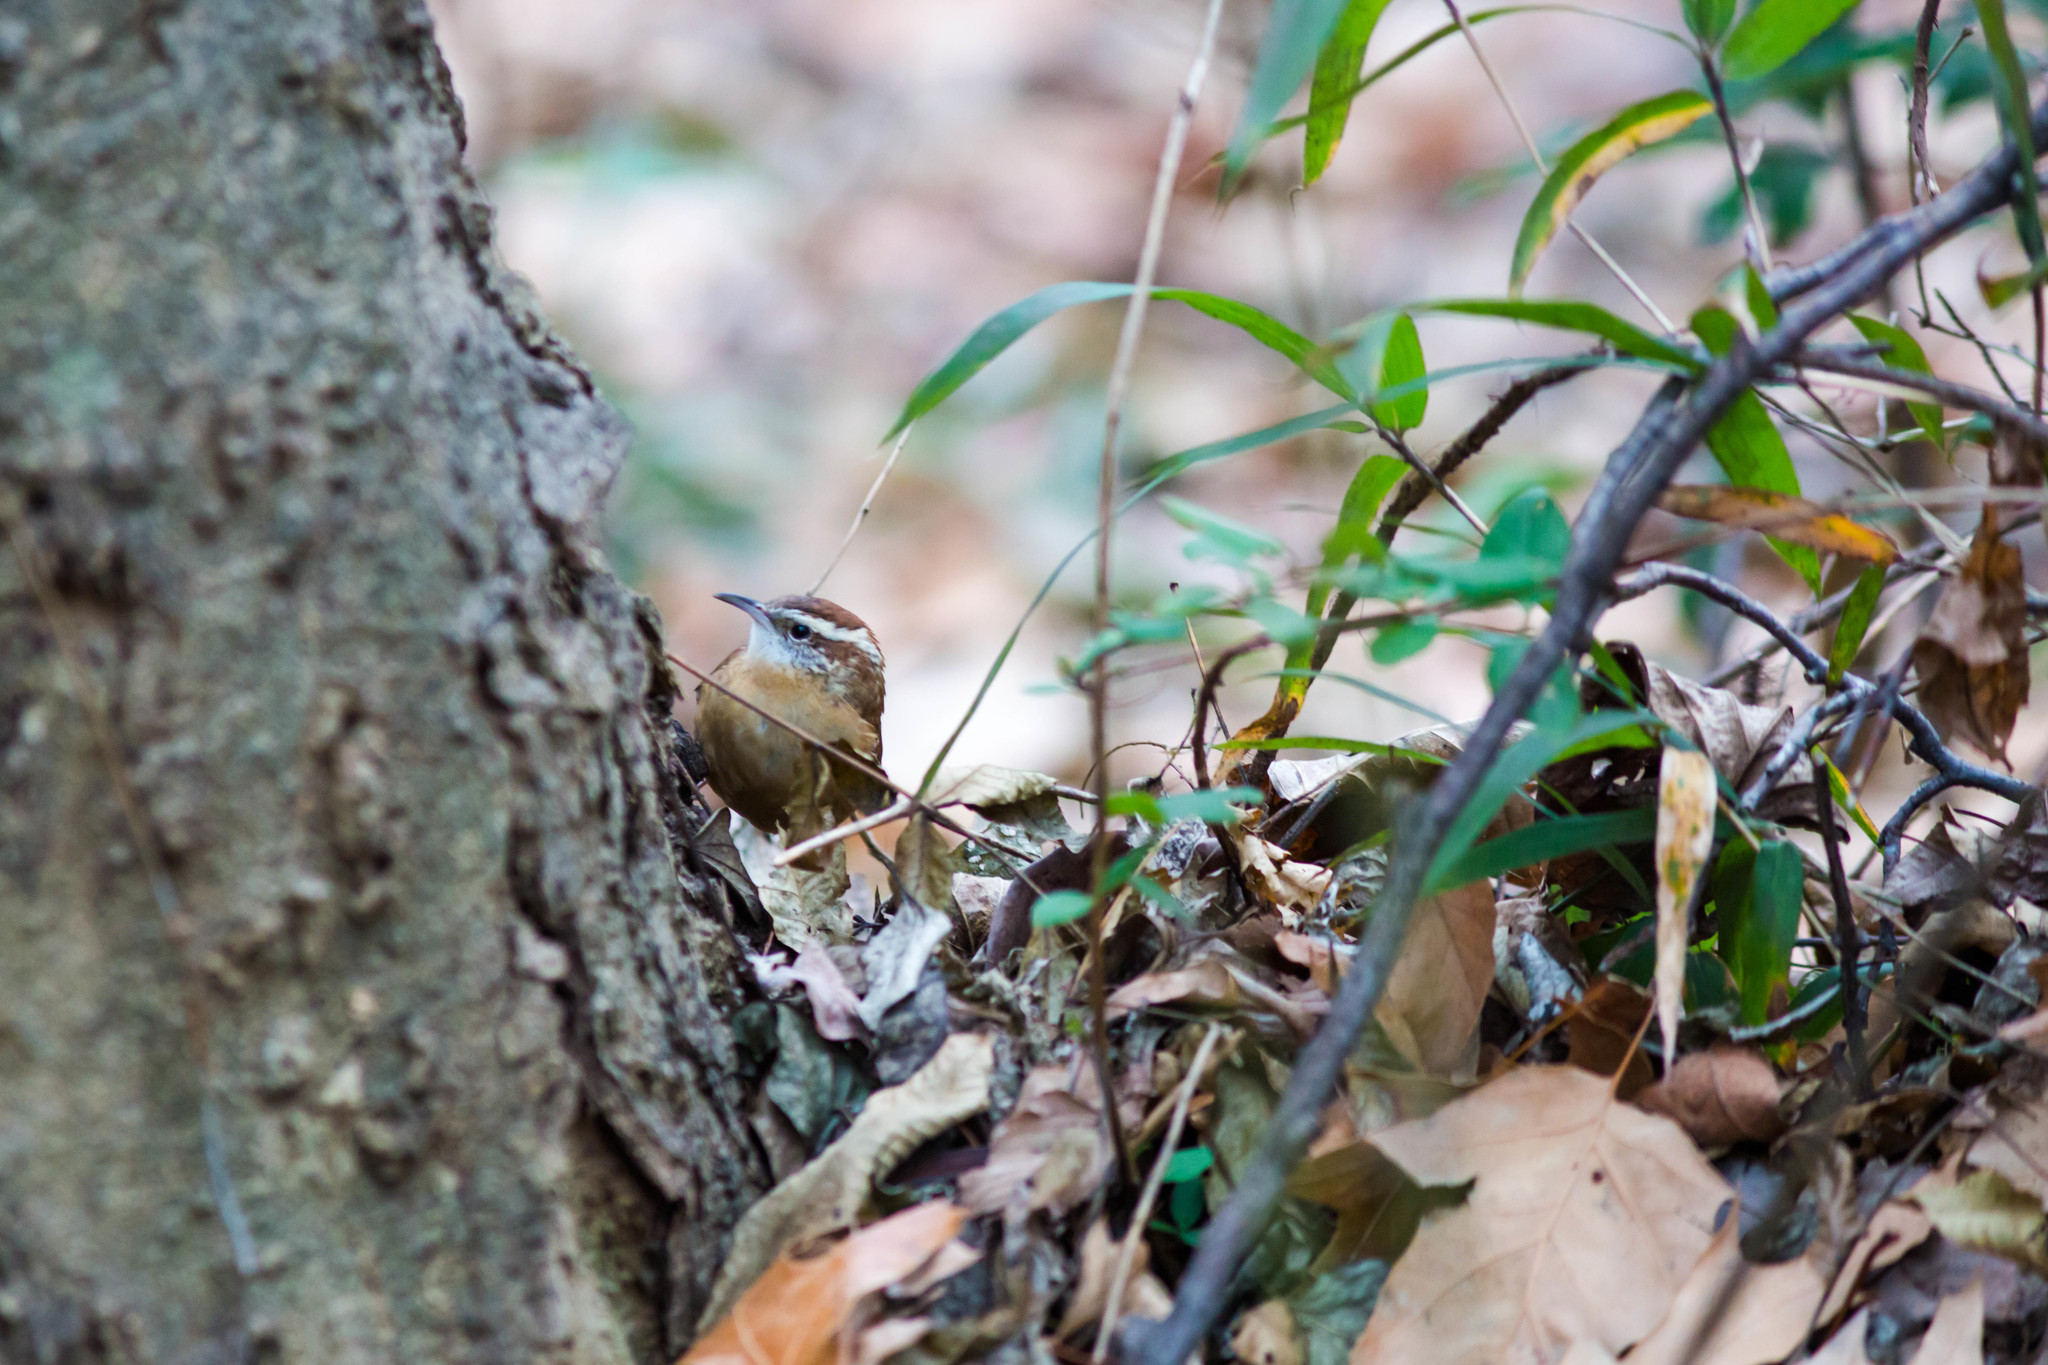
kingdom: Animalia
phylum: Chordata
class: Aves
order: Passeriformes
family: Troglodytidae
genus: Thryothorus
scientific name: Thryothorus ludovicianus
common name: Carolina wren
